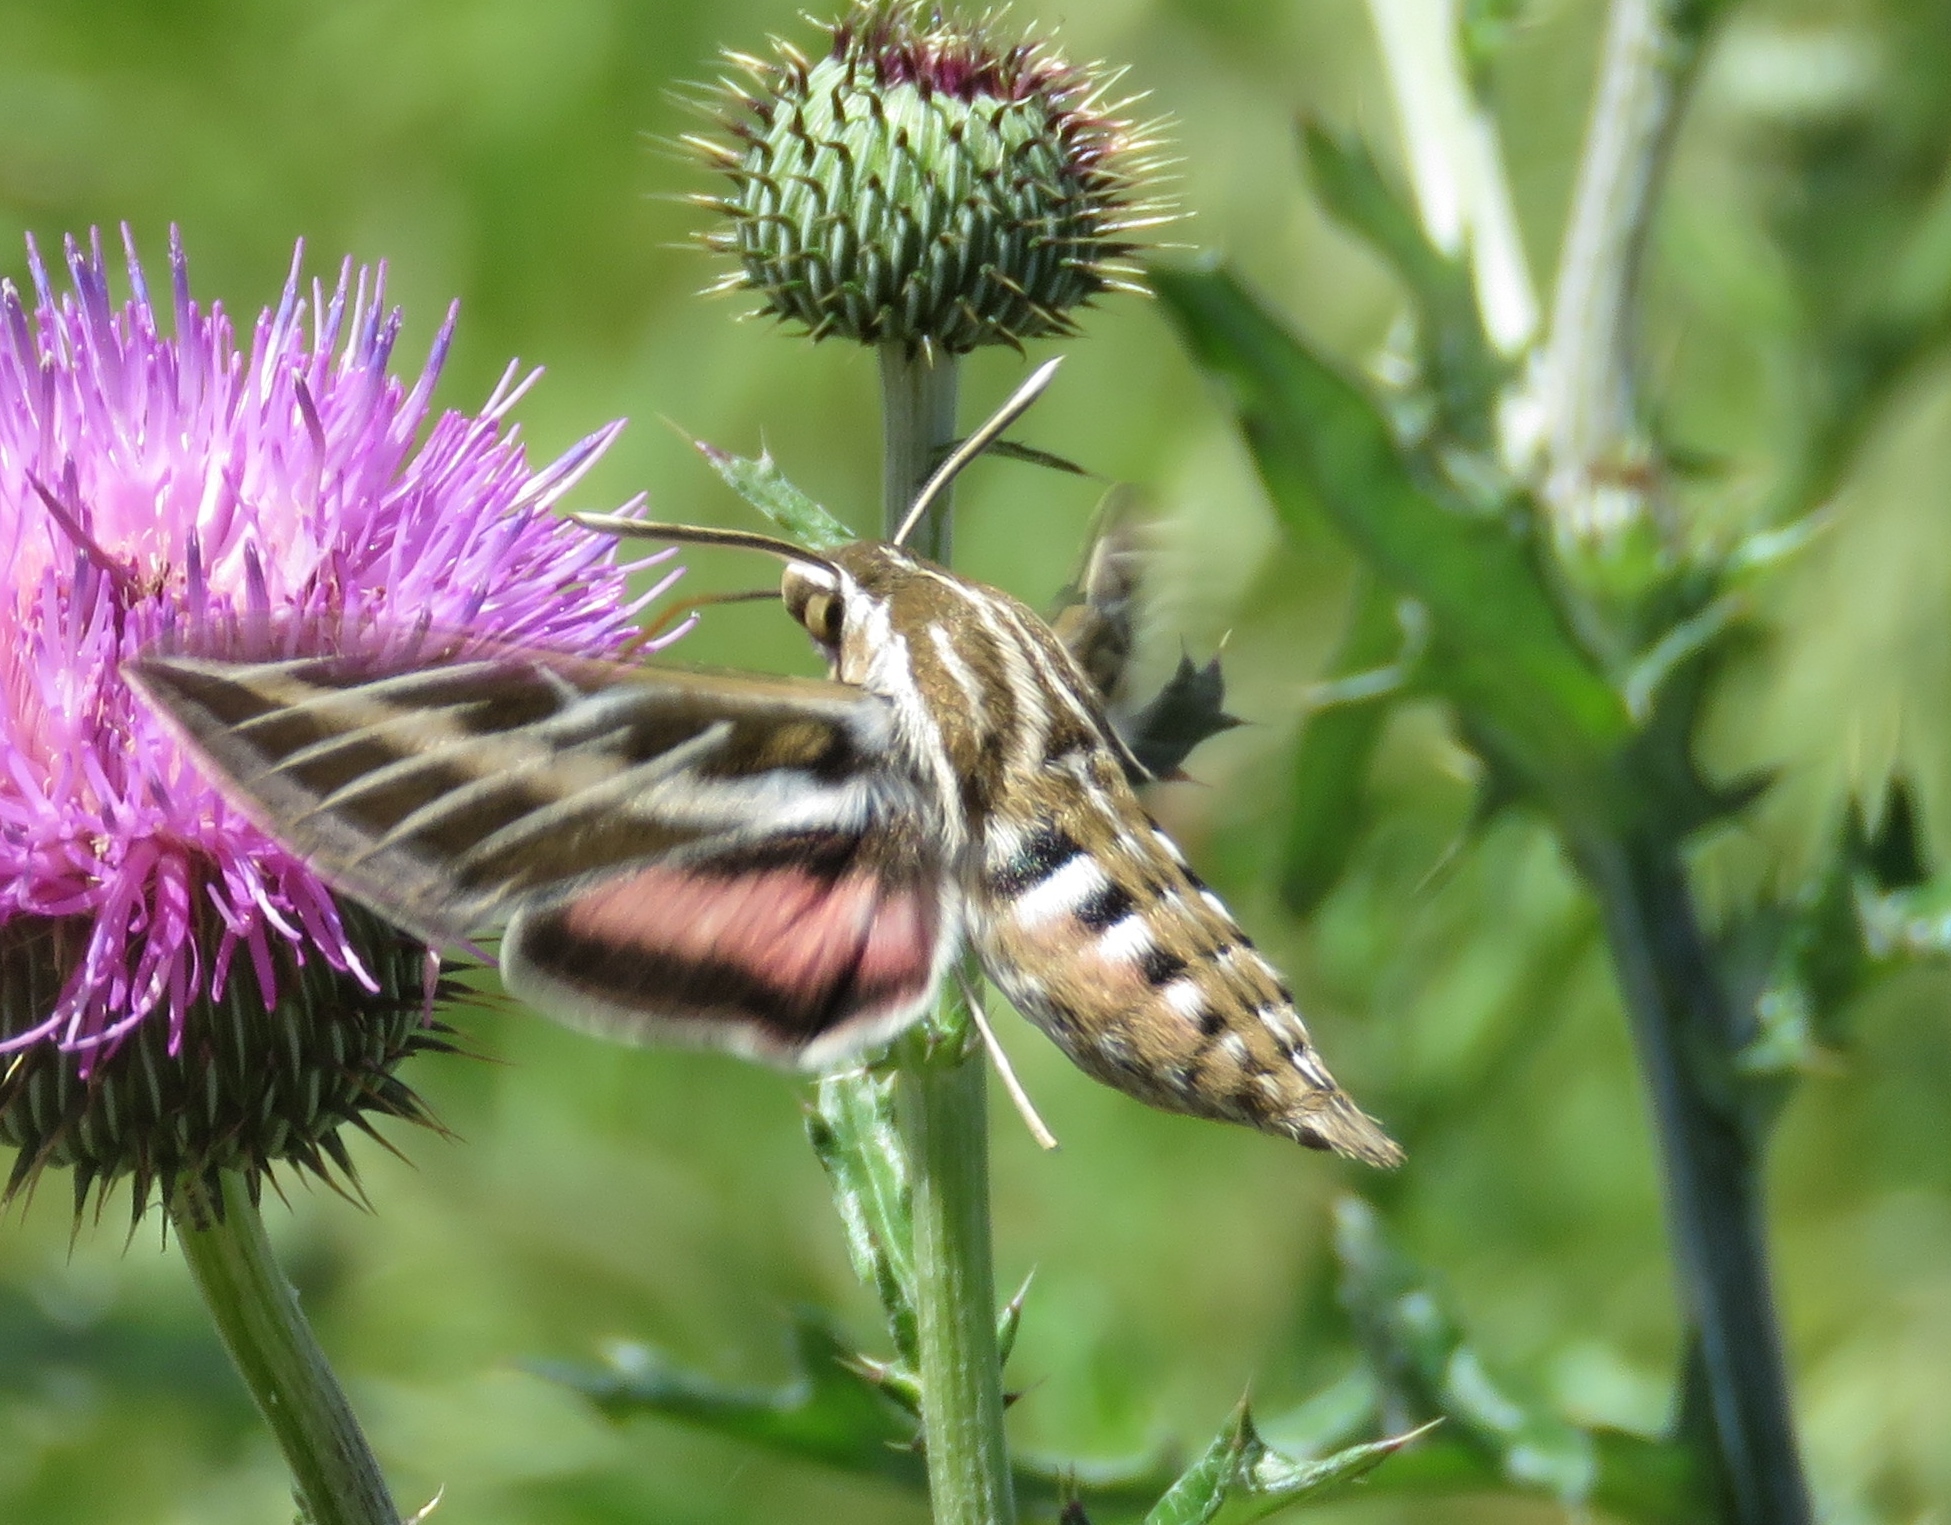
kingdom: Animalia
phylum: Arthropoda
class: Insecta
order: Lepidoptera
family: Sphingidae
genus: Hyles
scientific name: Hyles lineata
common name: White-lined sphinx
